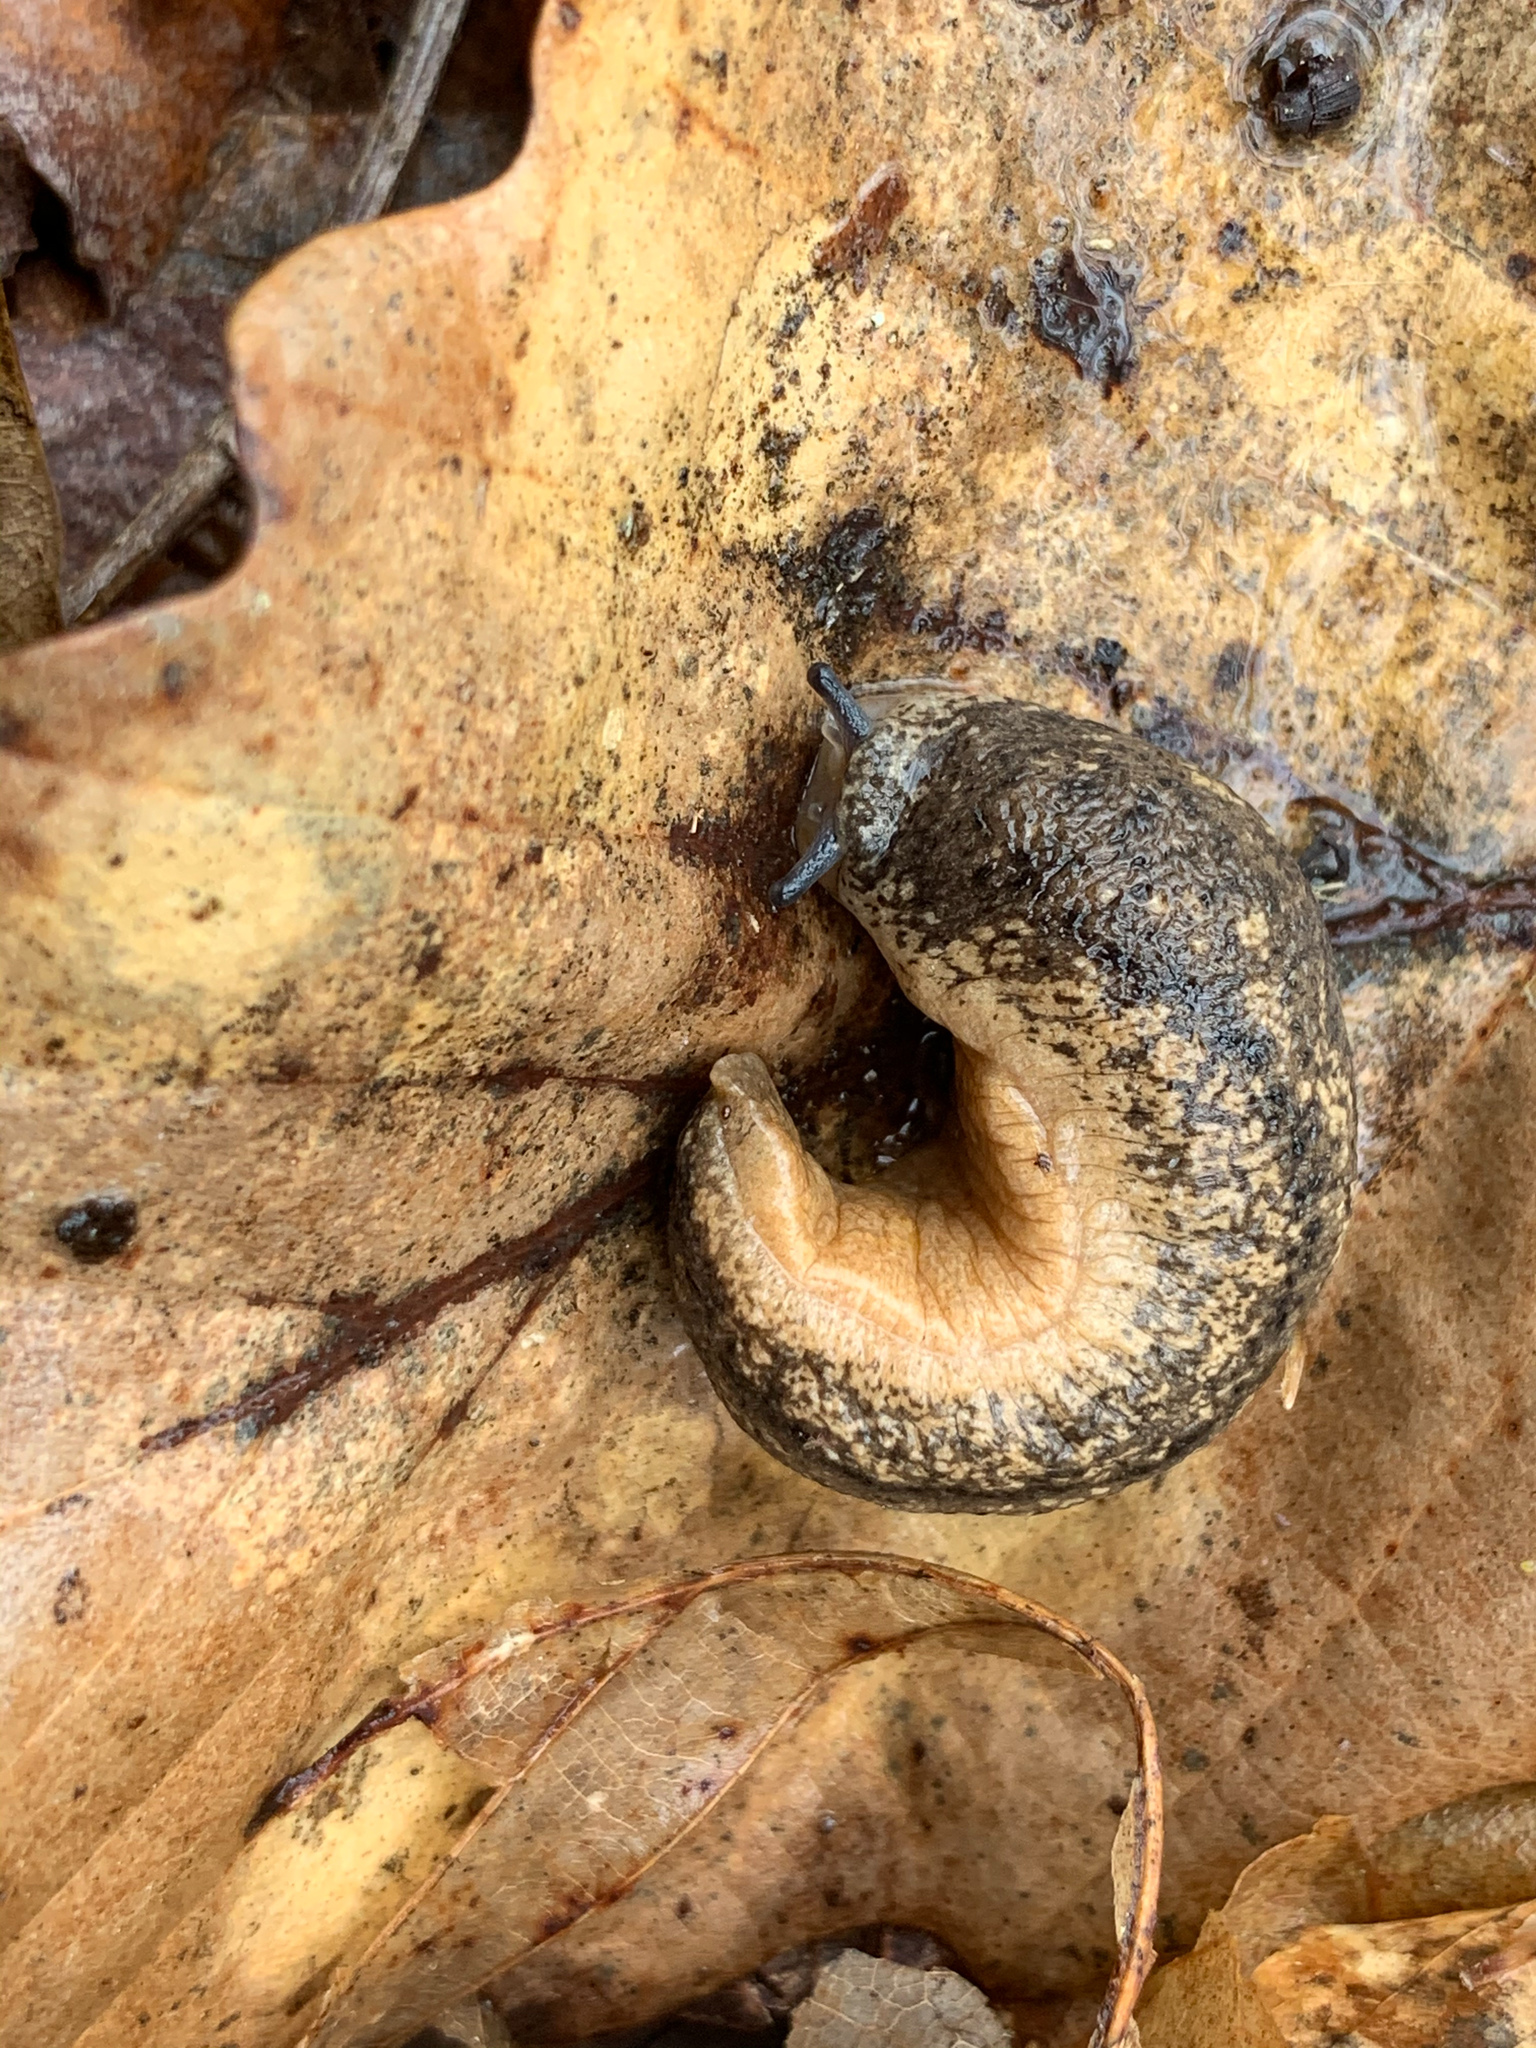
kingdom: Animalia
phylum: Mollusca
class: Gastropoda
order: Stylommatophora
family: Philomycidae
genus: Philomycus
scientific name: Philomycus togatus
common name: Toga mantleslug
